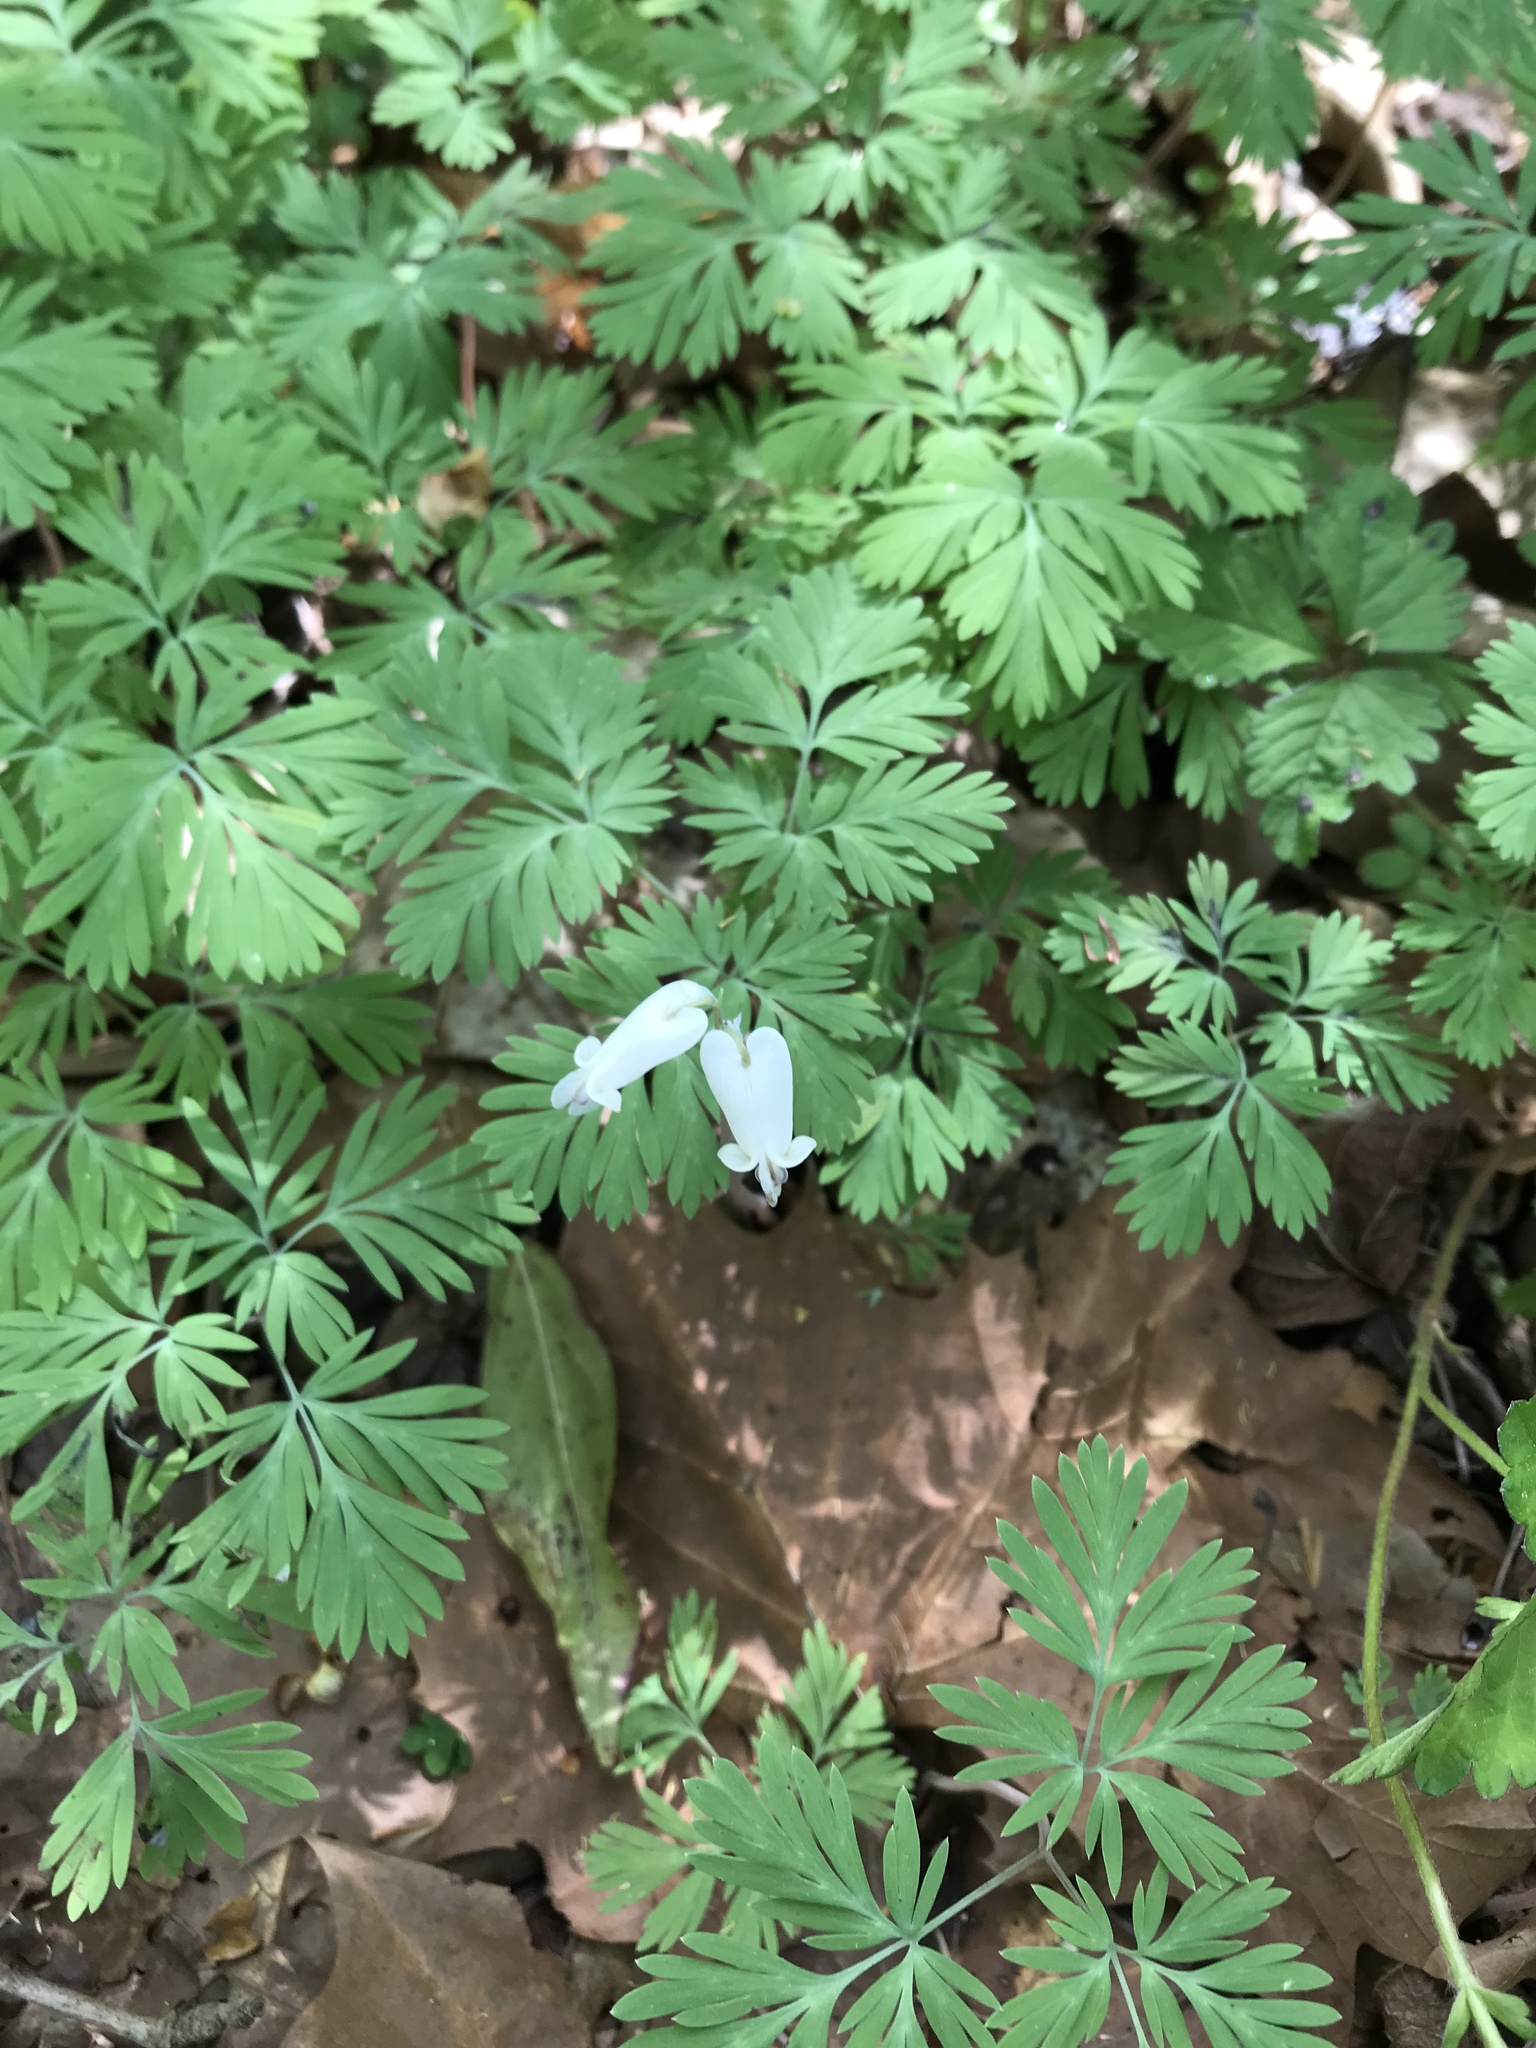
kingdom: Plantae
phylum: Tracheophyta
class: Magnoliopsida
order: Ranunculales
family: Papaveraceae
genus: Dicentra
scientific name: Dicentra canadensis
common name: Squirrel-corn
